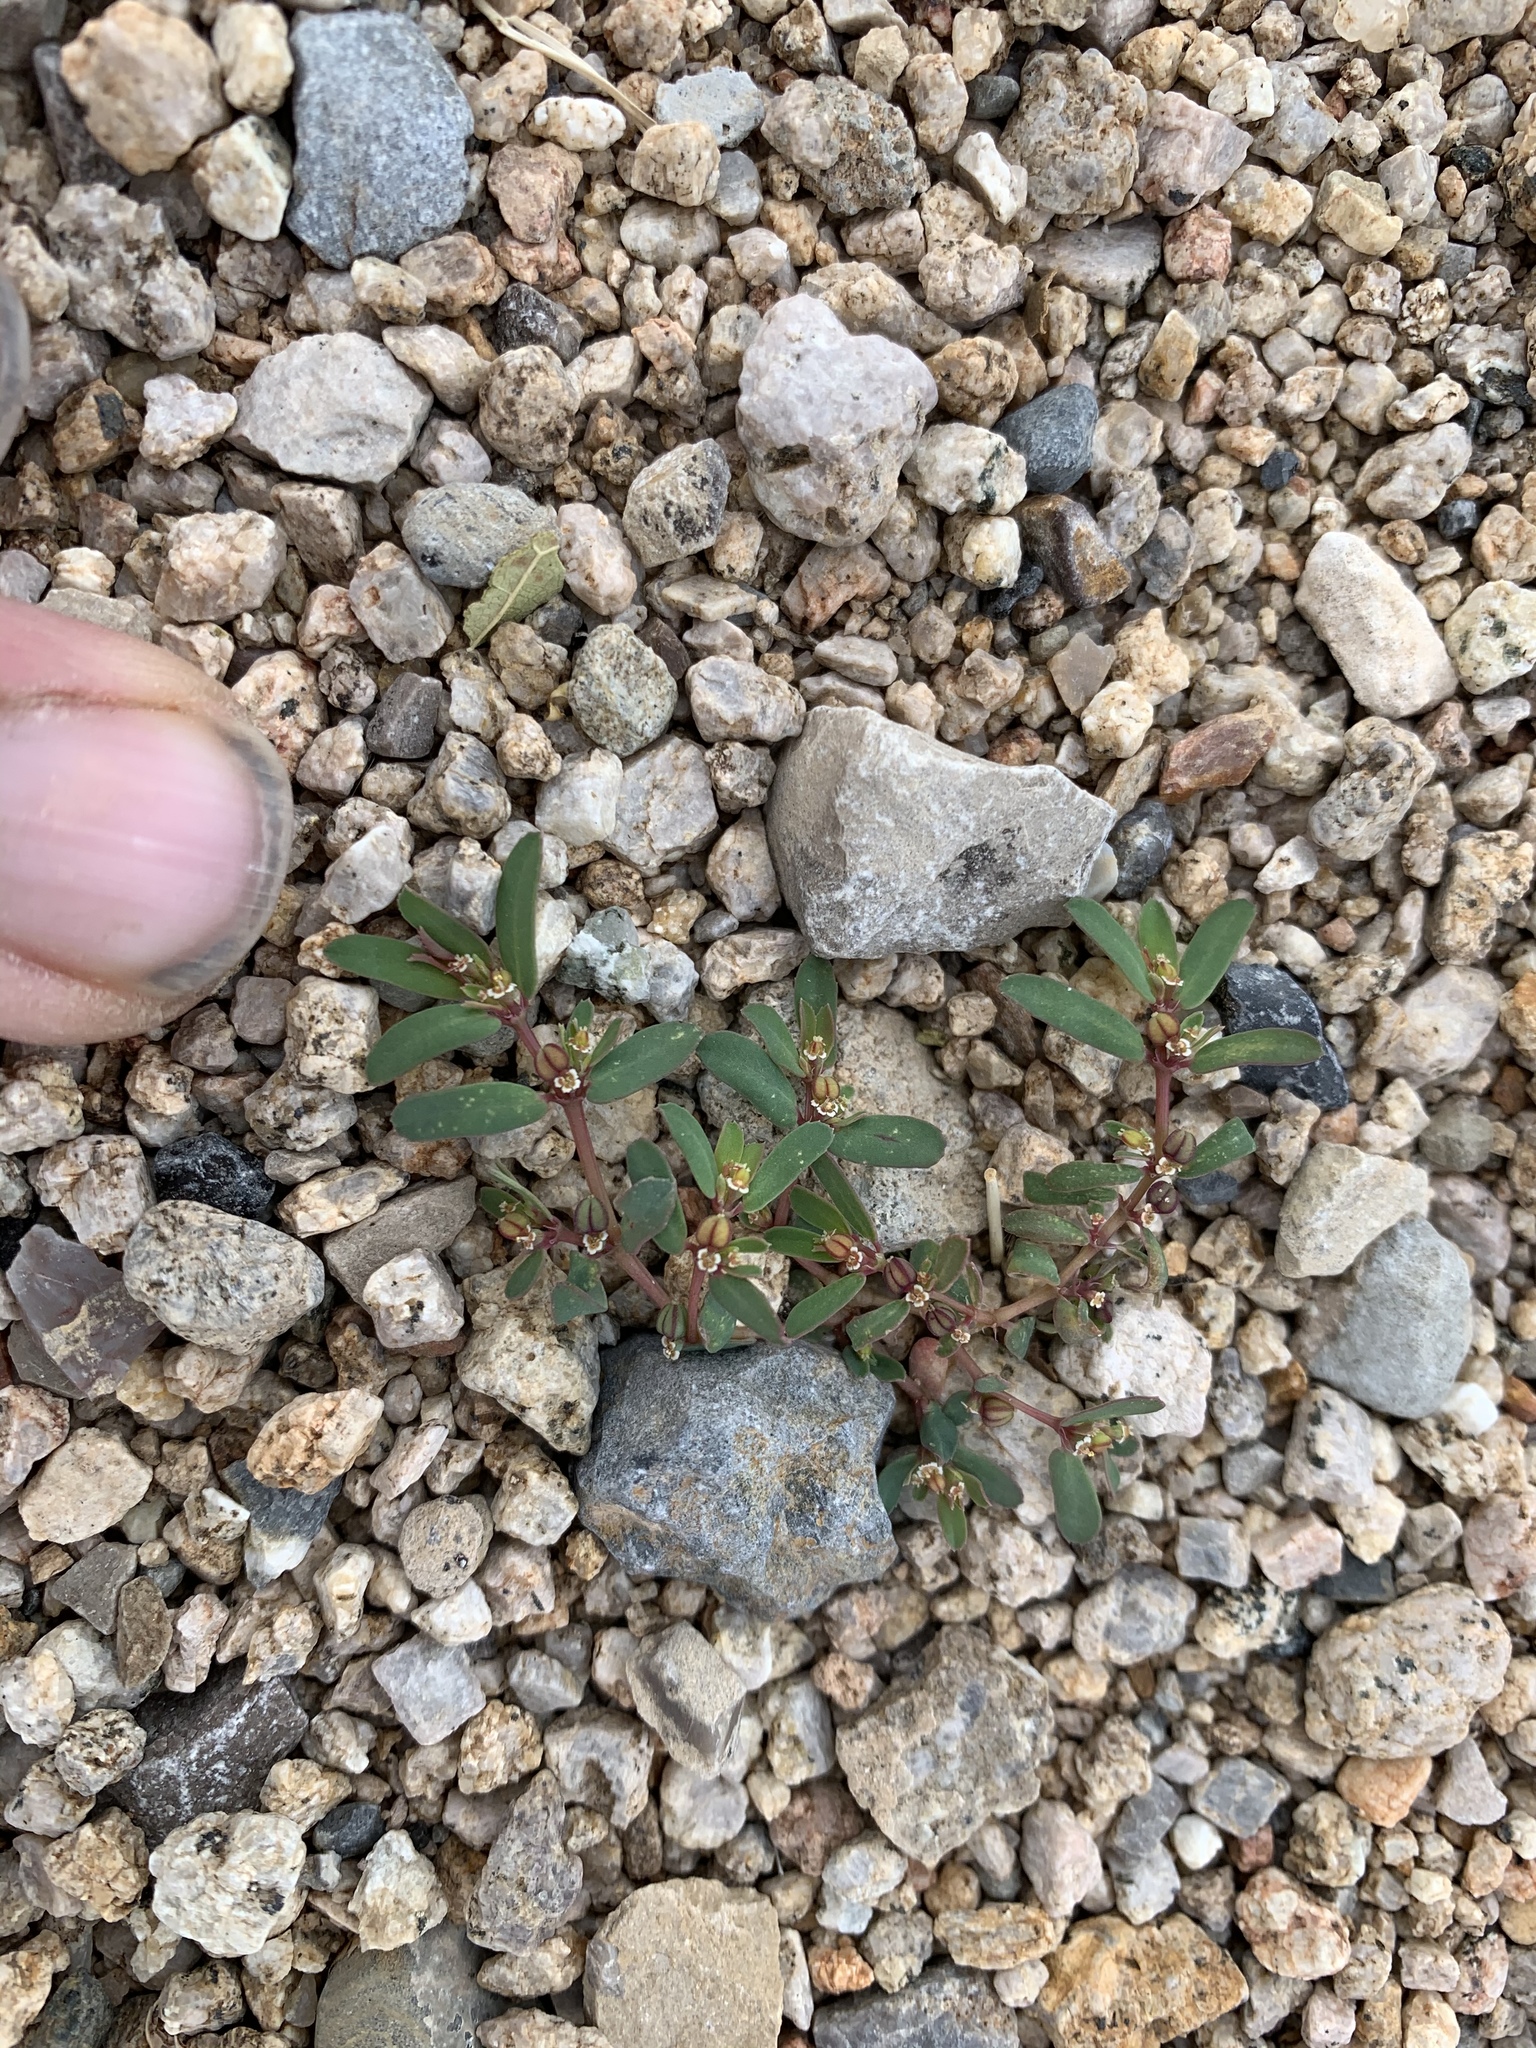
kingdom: Plantae
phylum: Tracheophyta
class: Magnoliopsida
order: Malpighiales
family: Euphorbiaceae
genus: Euphorbia
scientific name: Euphorbia serpillifolia
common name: Thyme-leaf spurge
